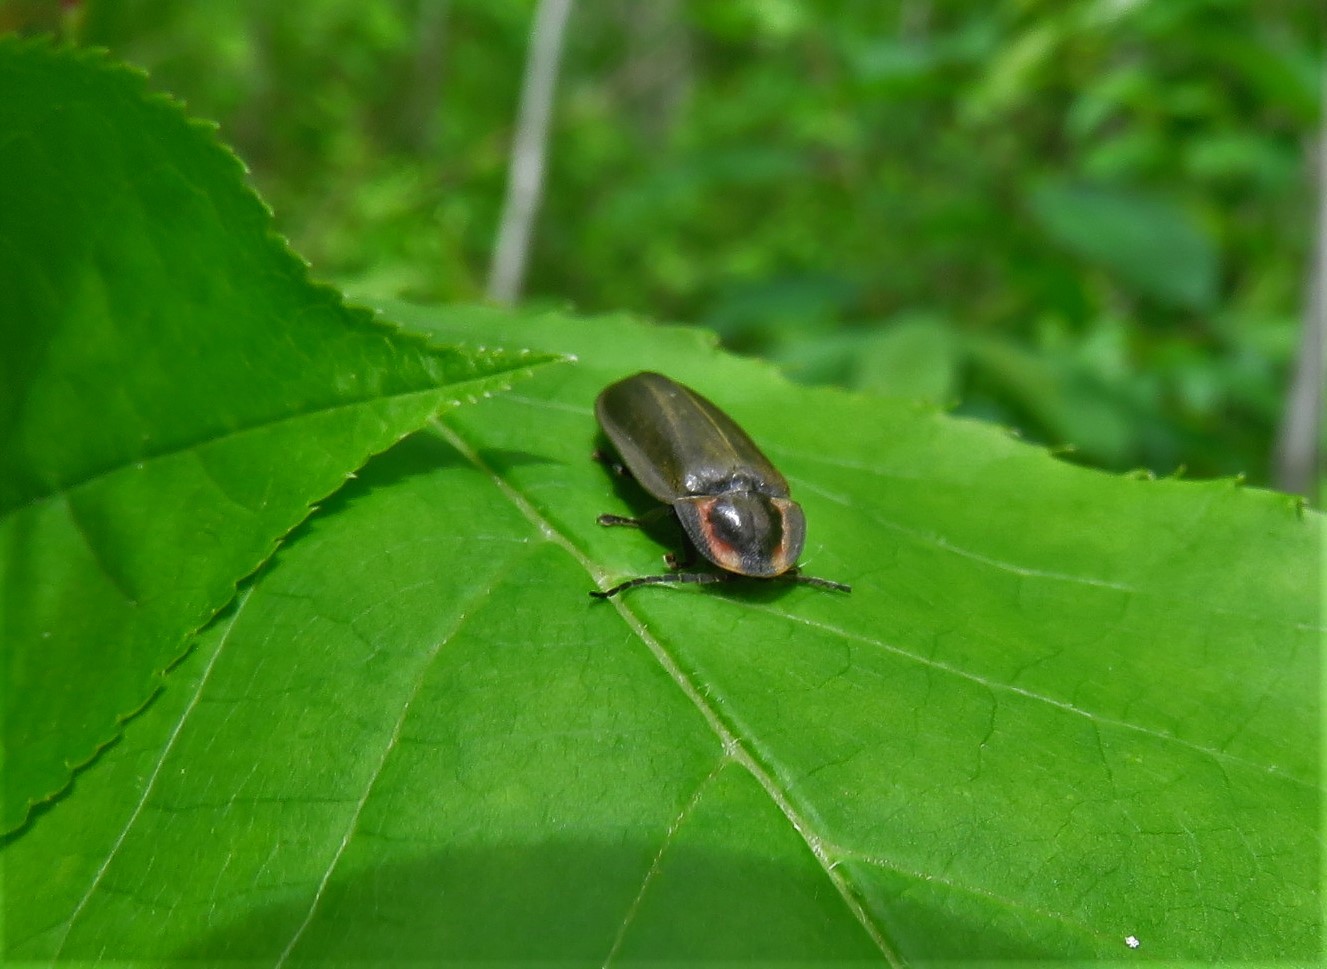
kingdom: Animalia
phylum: Arthropoda
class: Insecta
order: Coleoptera
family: Lampyridae
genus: Photinus
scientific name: Photinus corrusca
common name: Winter firefly
